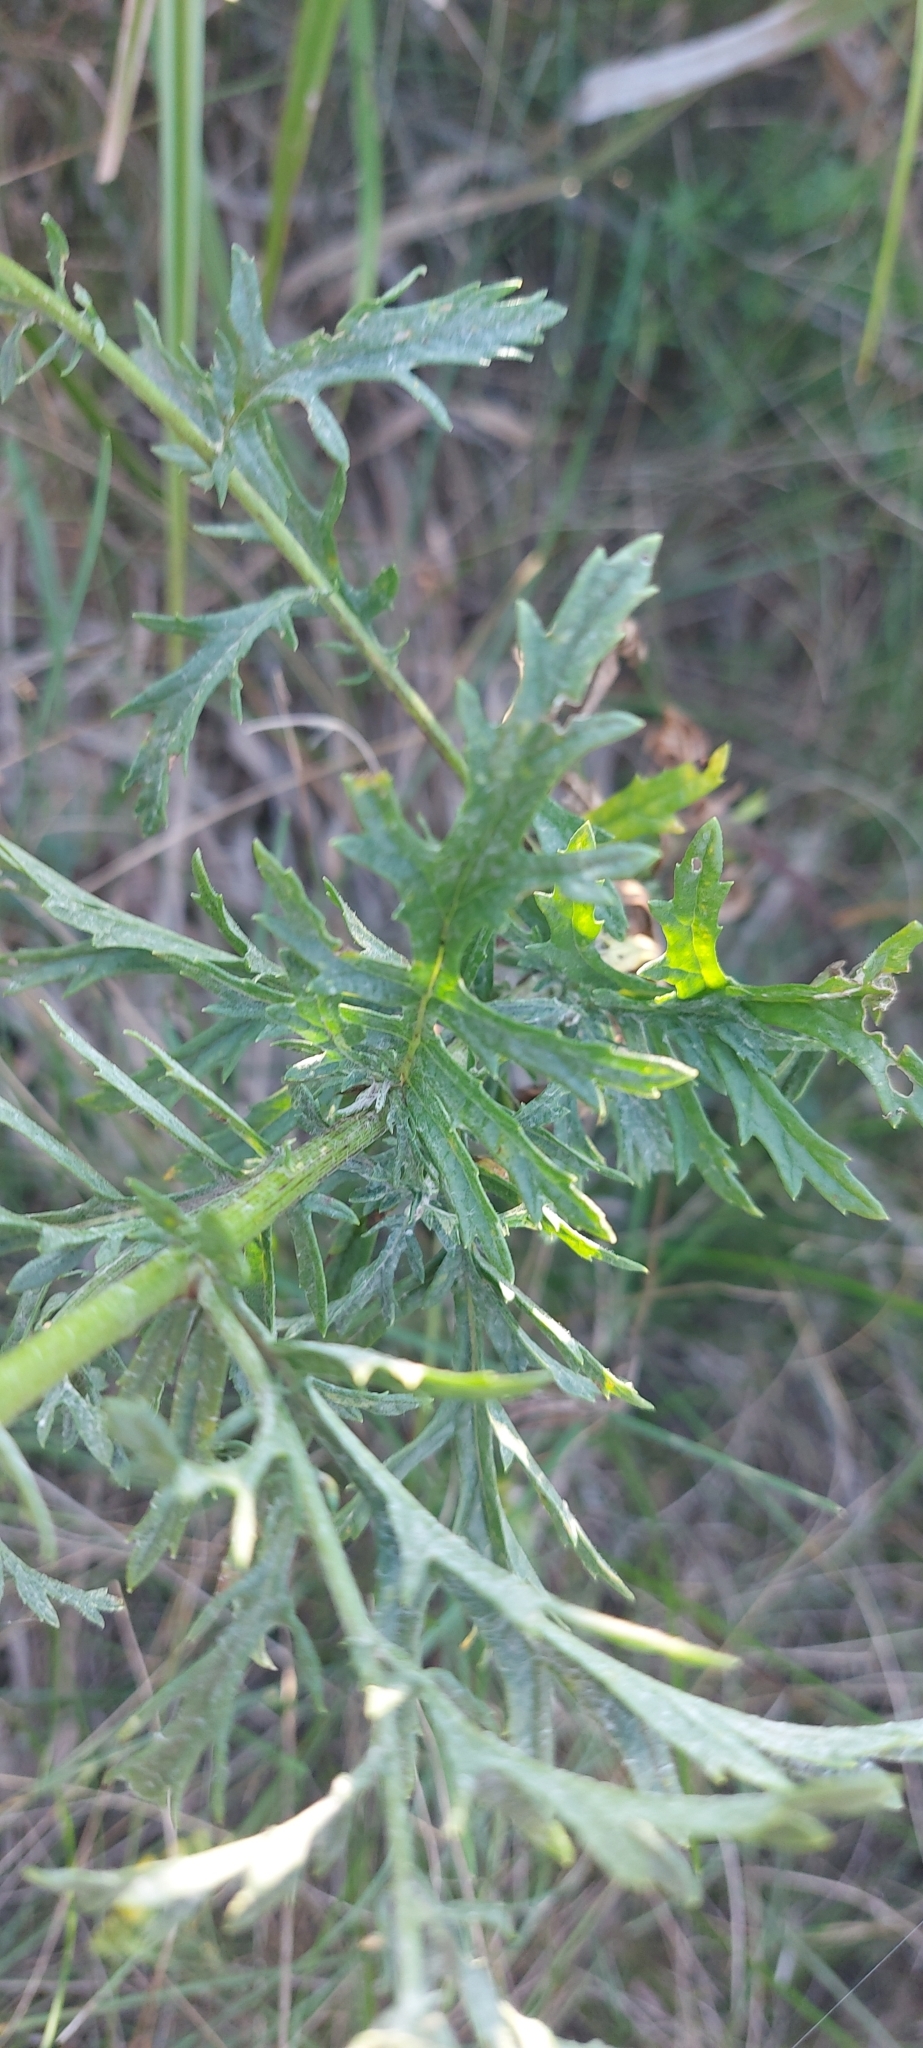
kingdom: Plantae
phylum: Tracheophyta
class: Magnoliopsida
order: Asterales
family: Asteraceae
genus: Jacobaea
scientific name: Jacobaea erucifolia
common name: Hoary ragwort
